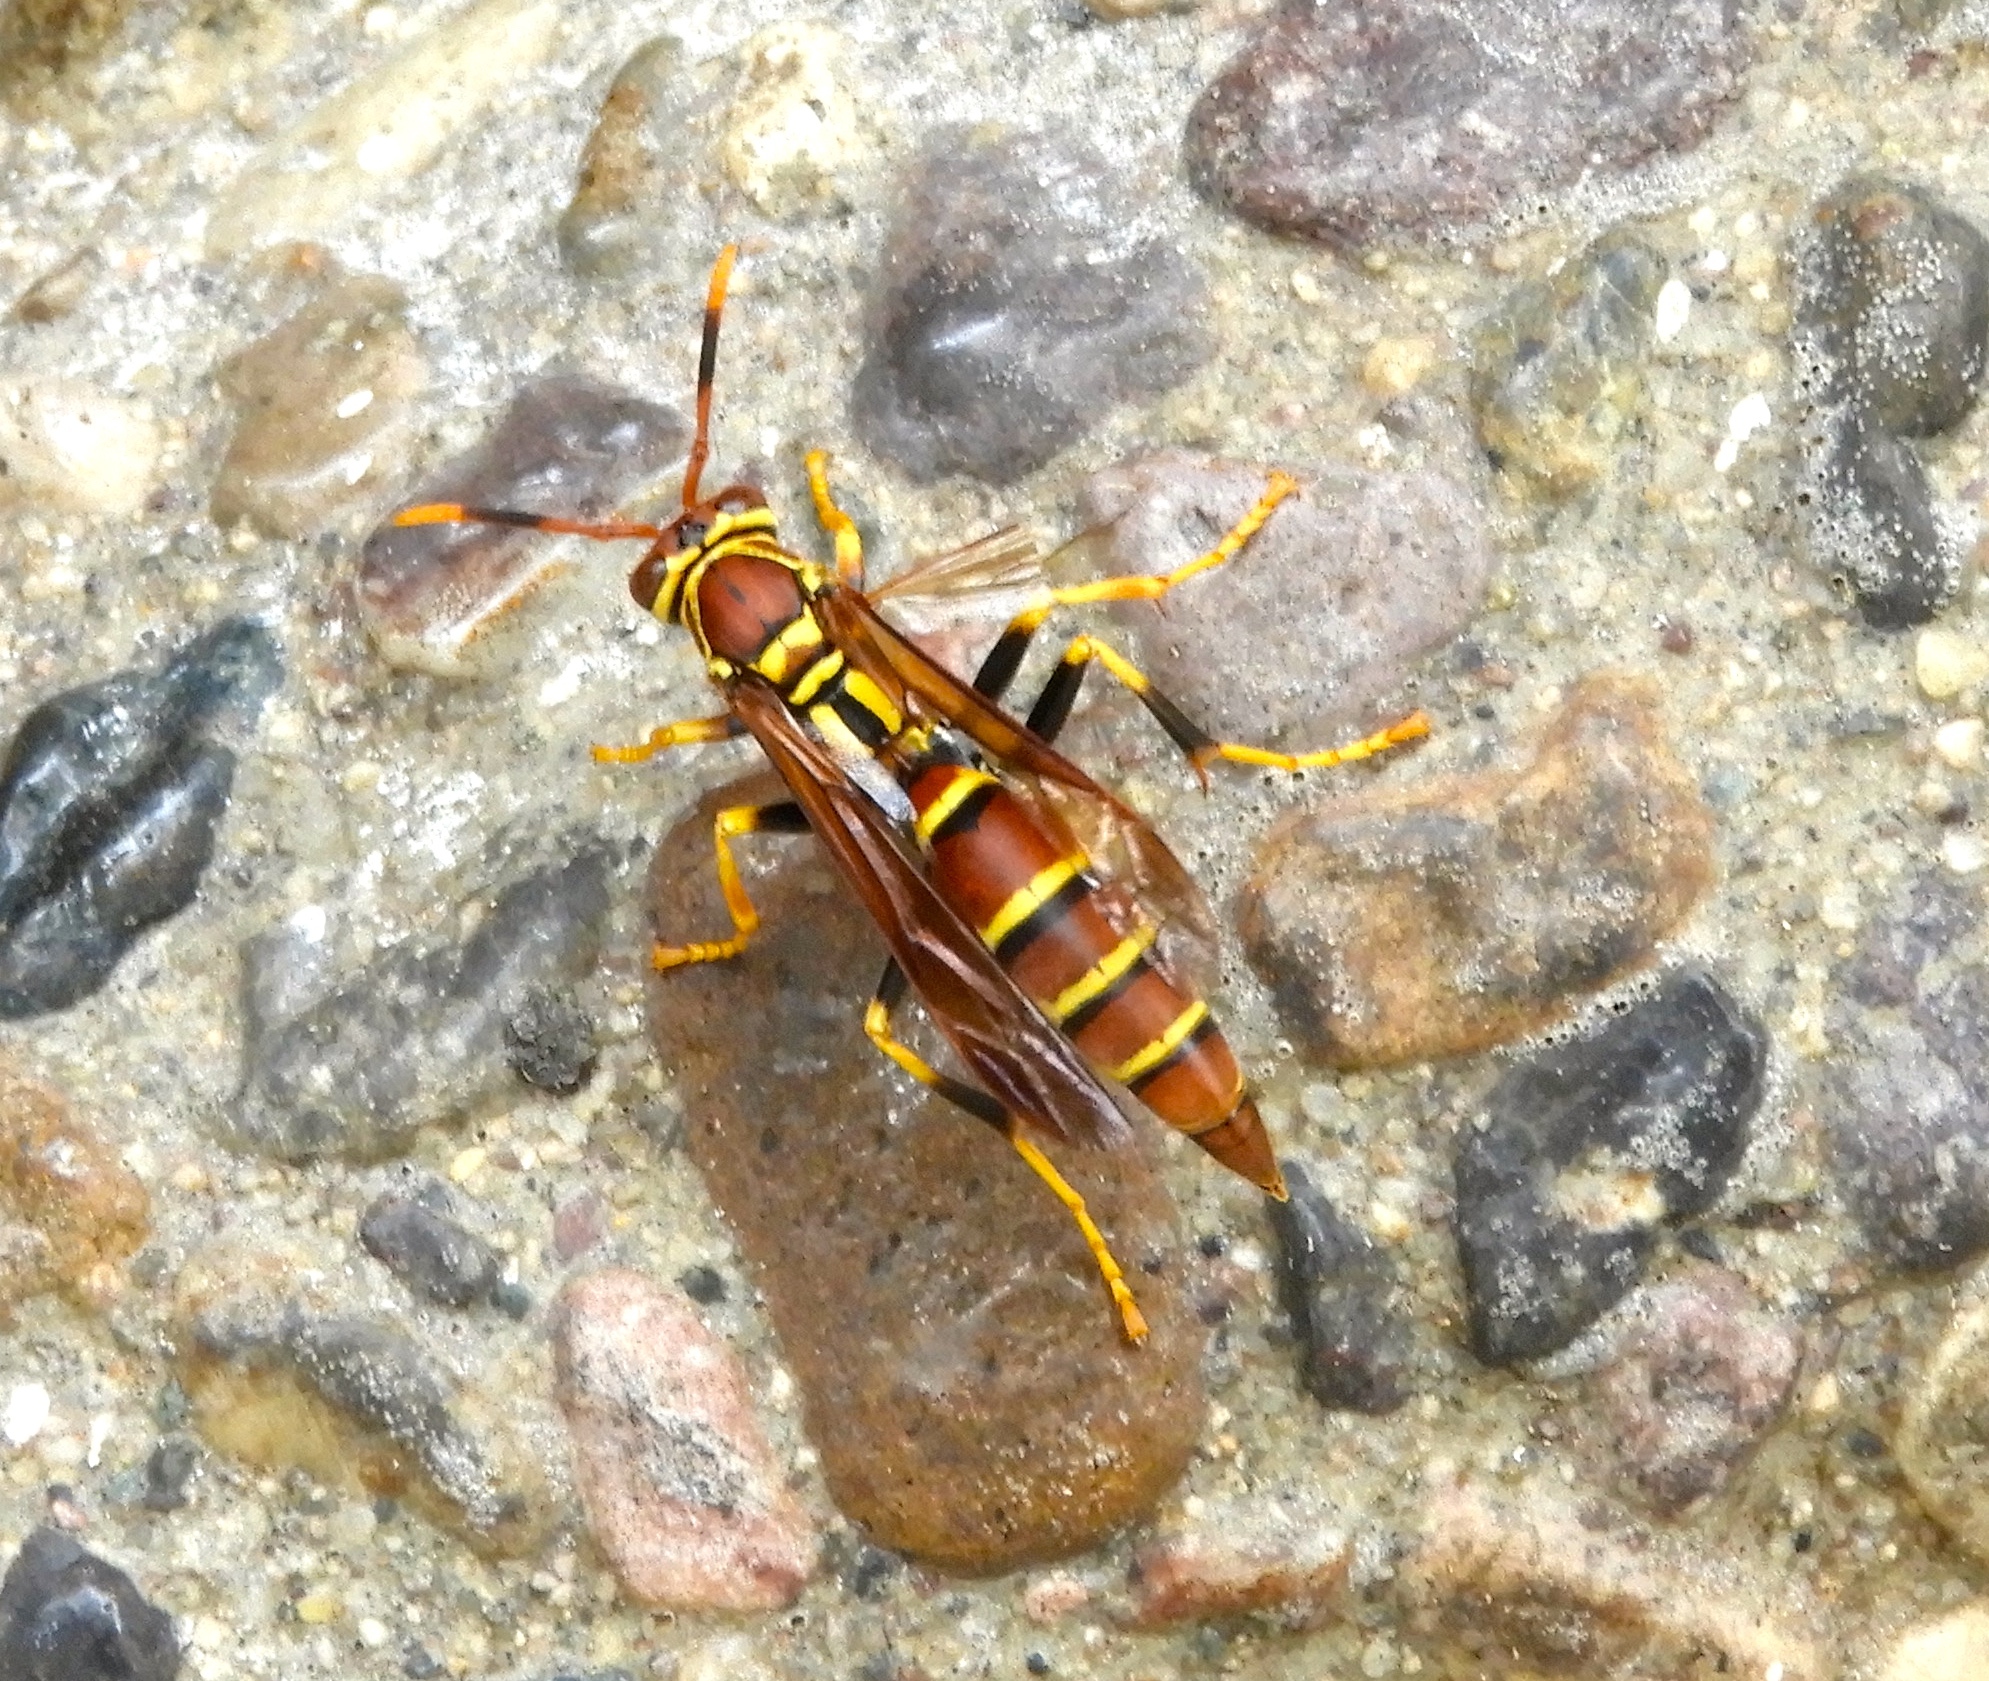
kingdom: Animalia
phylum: Arthropoda
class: Insecta
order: Hymenoptera
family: Eumenidae
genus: Polistes
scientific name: Polistes instabilis
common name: Unstable paper wasp
